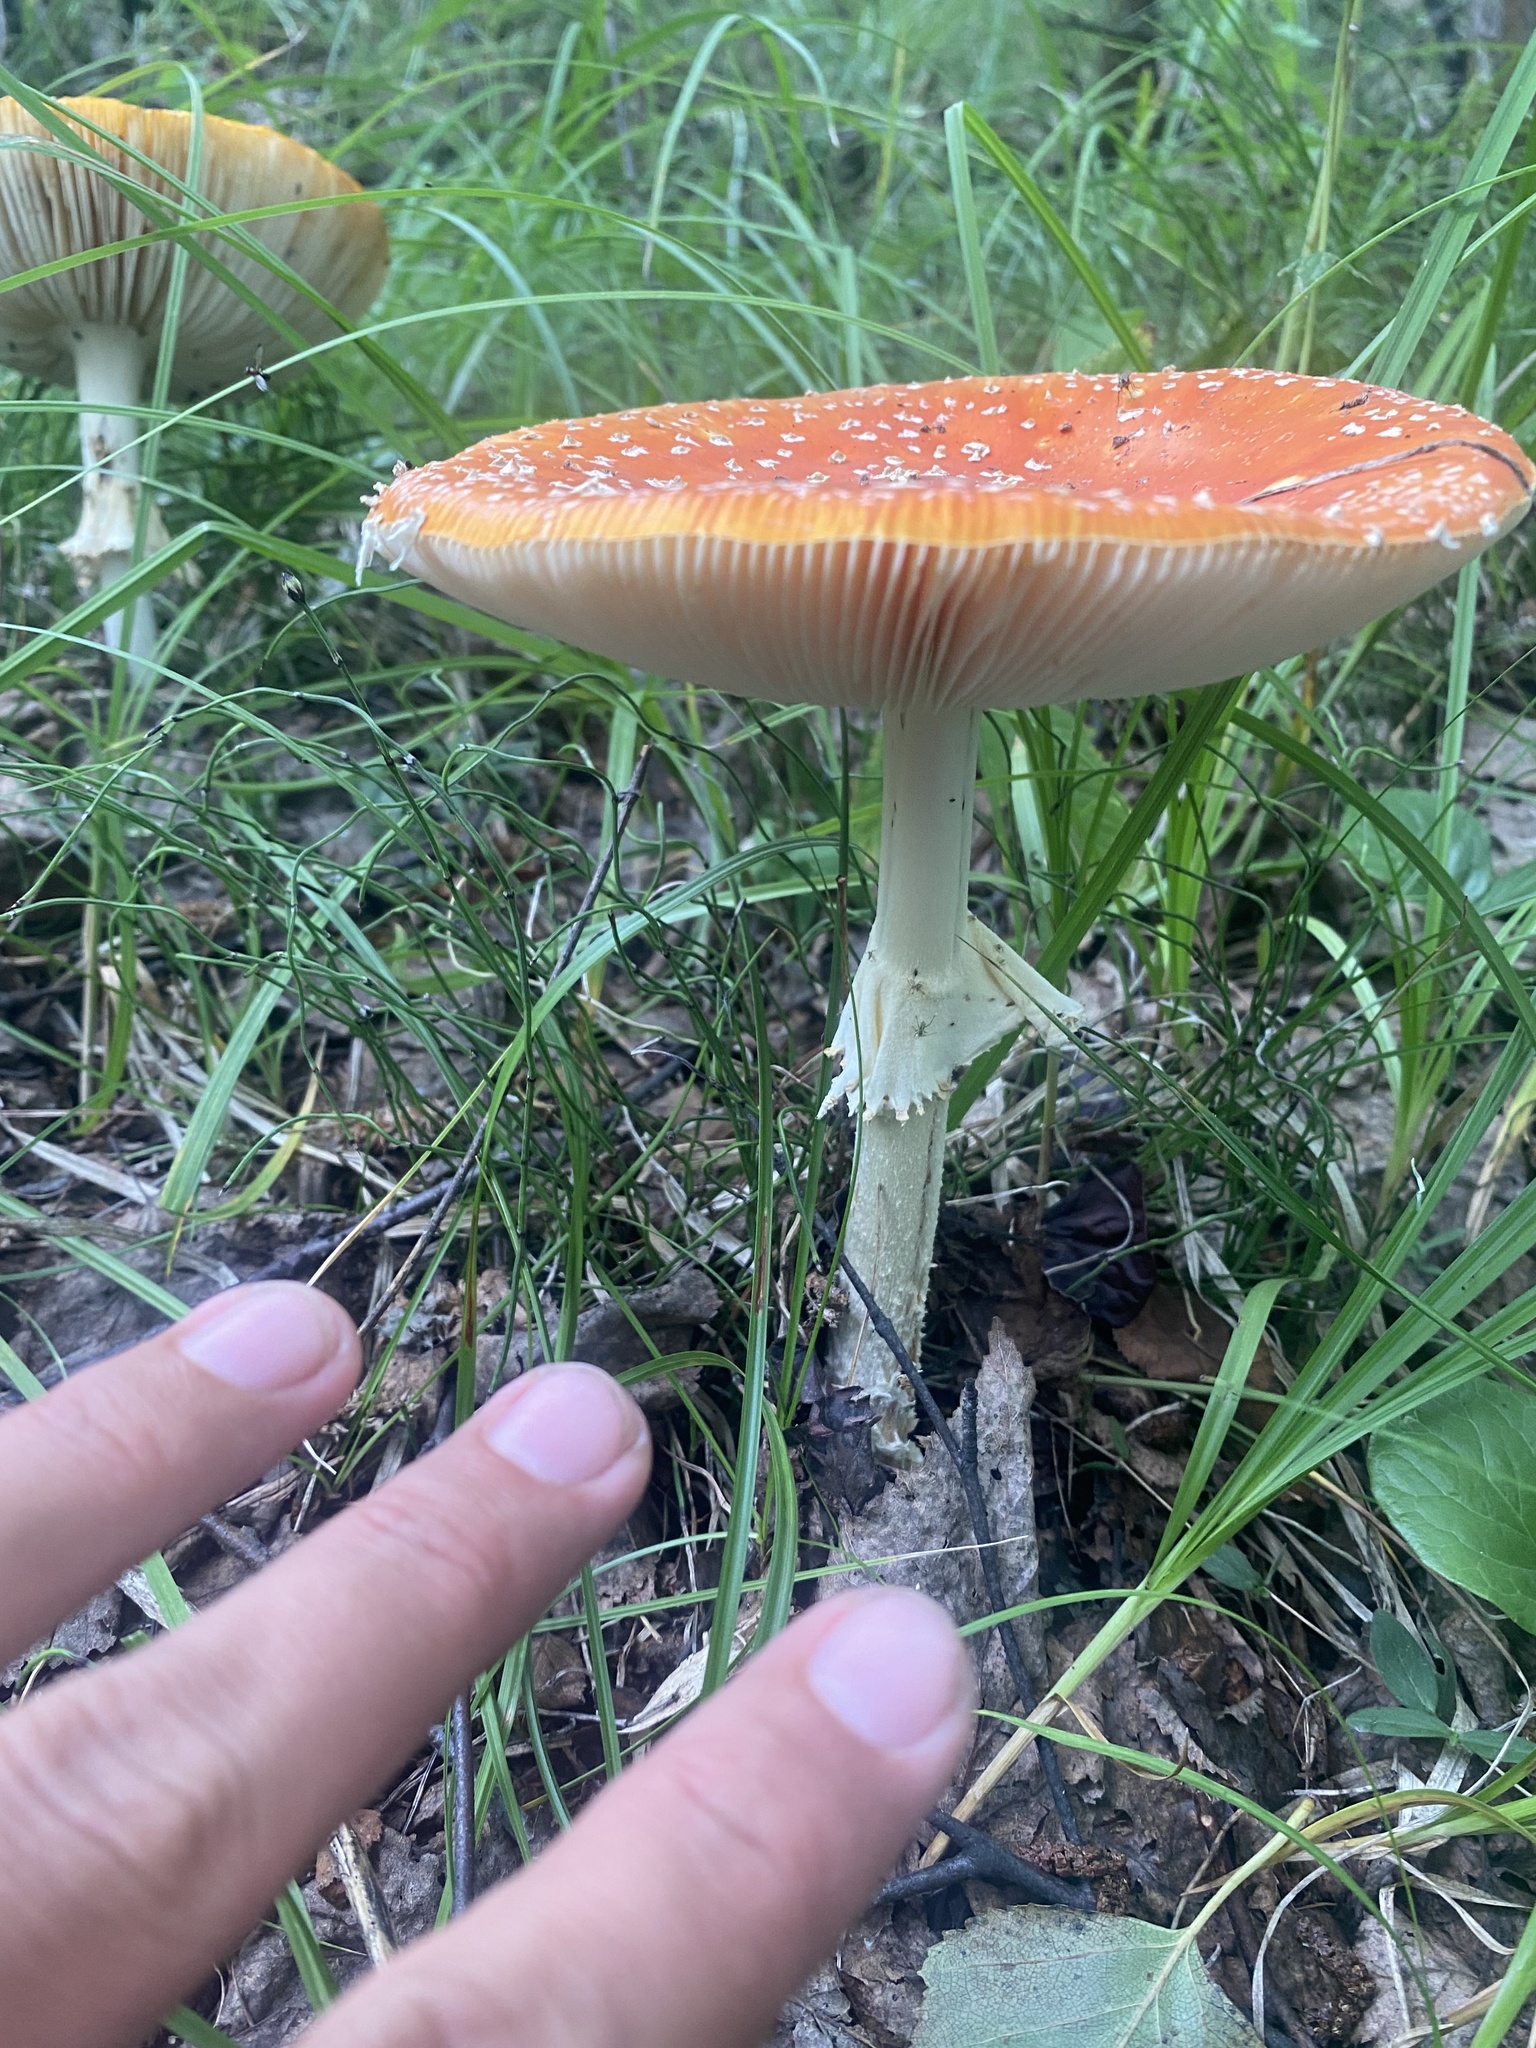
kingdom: Fungi
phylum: Basidiomycota
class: Agaricomycetes
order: Agaricales
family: Amanitaceae
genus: Amanita
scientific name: Amanita muscaria
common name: Fly agaric
